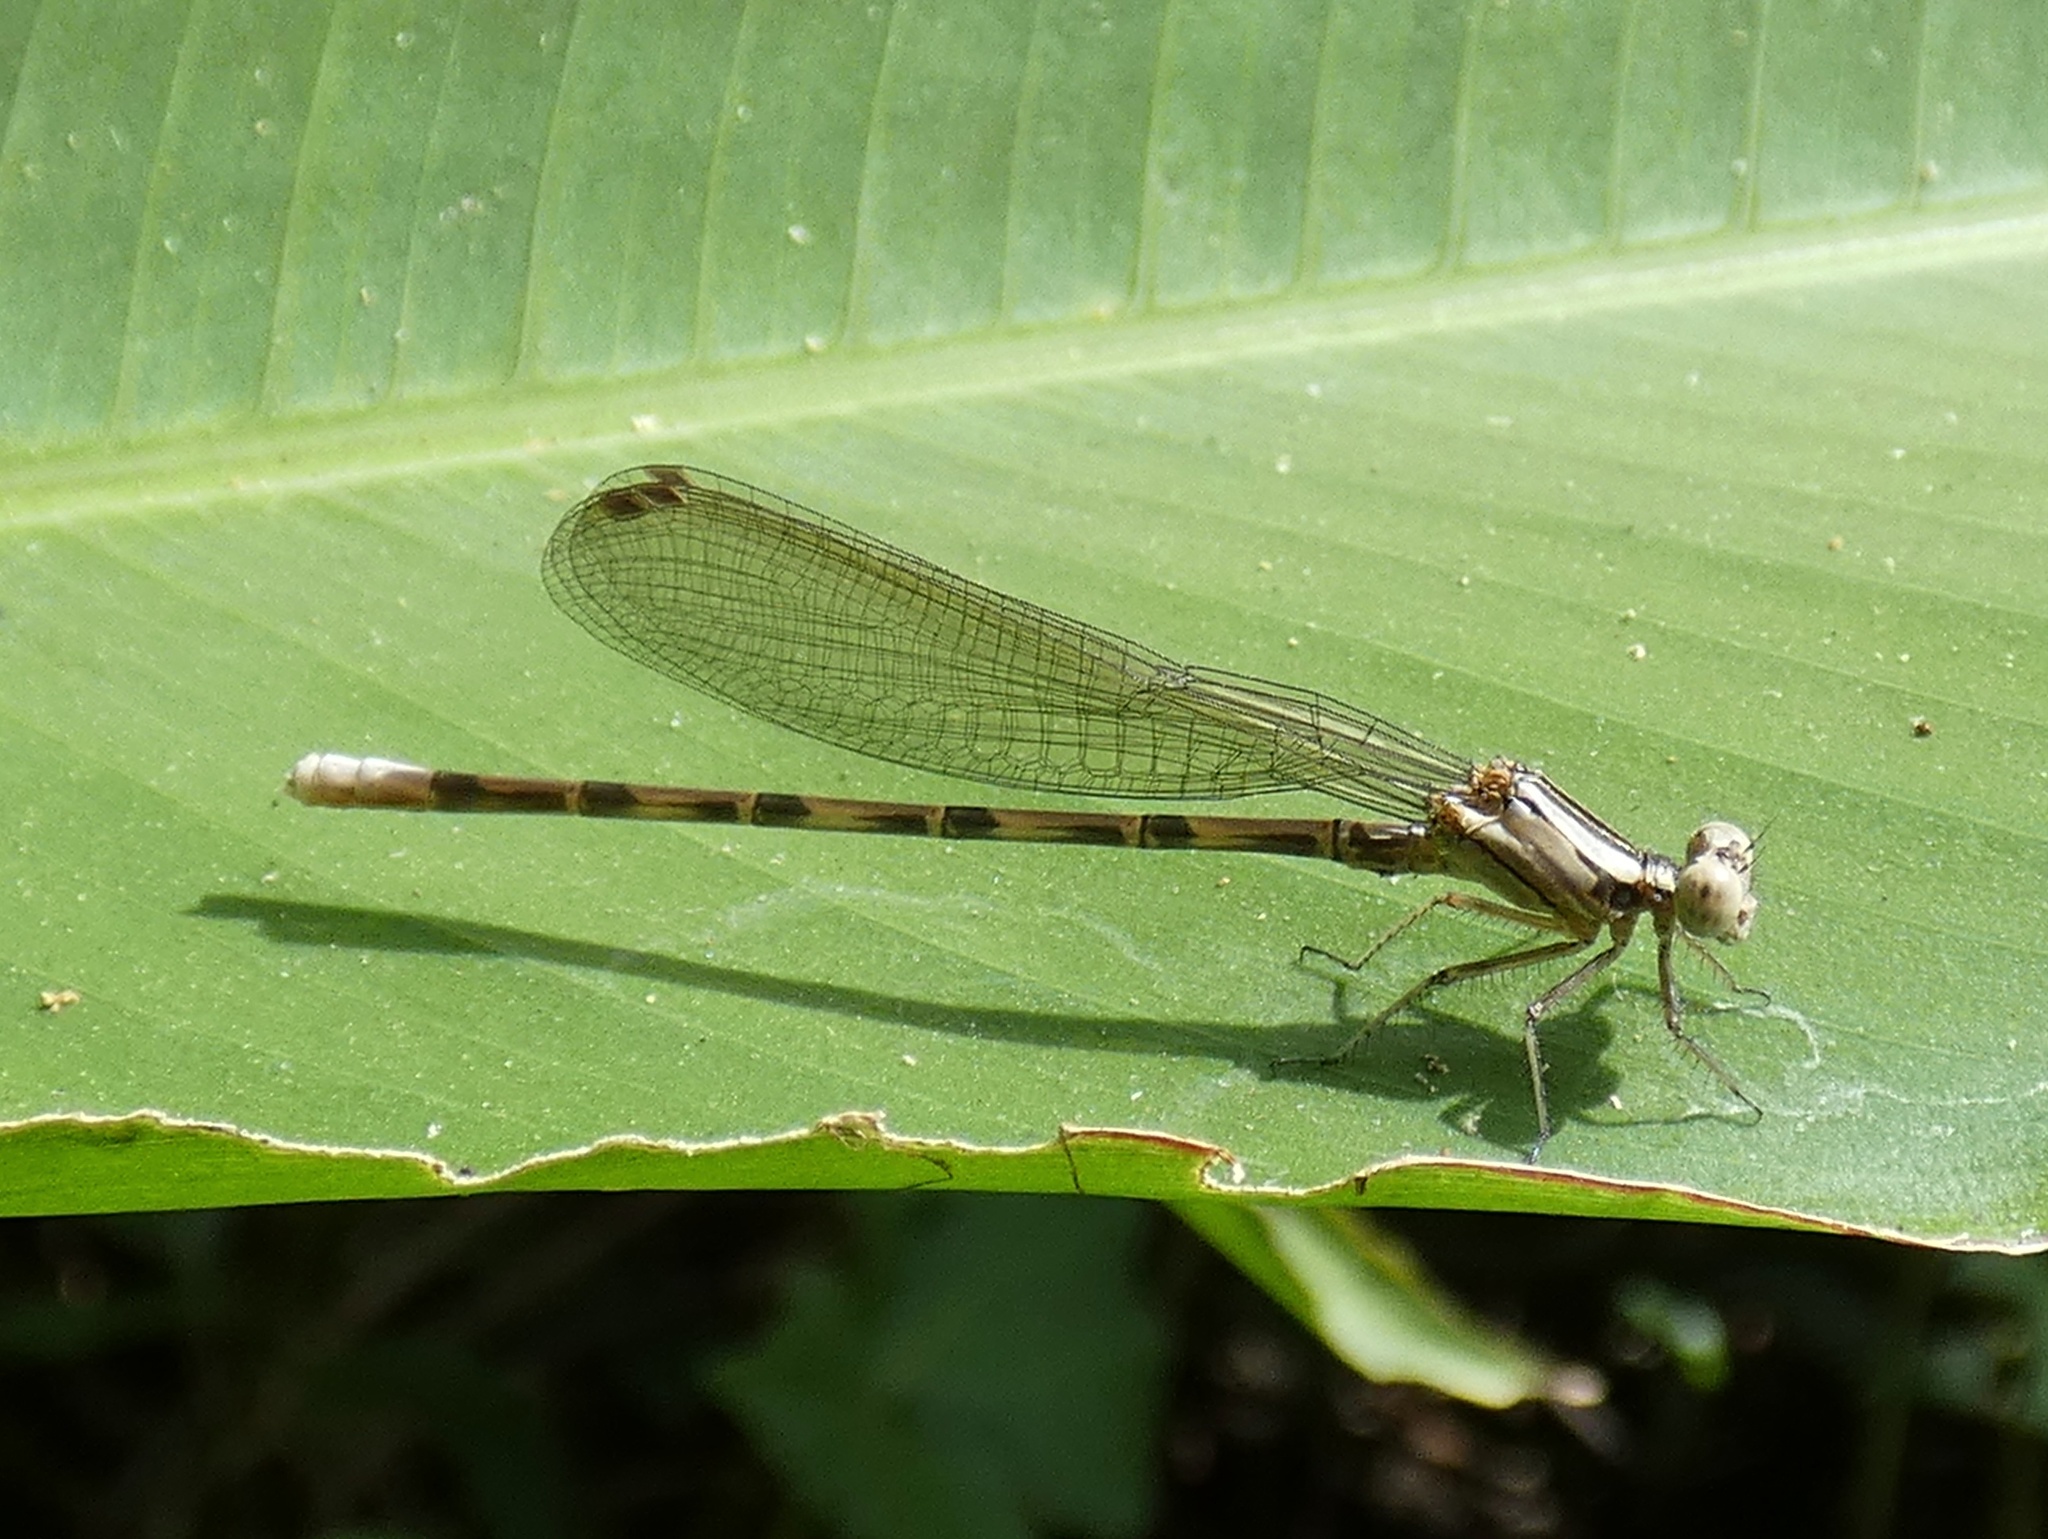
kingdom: Animalia
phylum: Arthropoda
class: Insecta
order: Odonata
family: Coenagrionidae
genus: Argia
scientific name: Argia elongata
